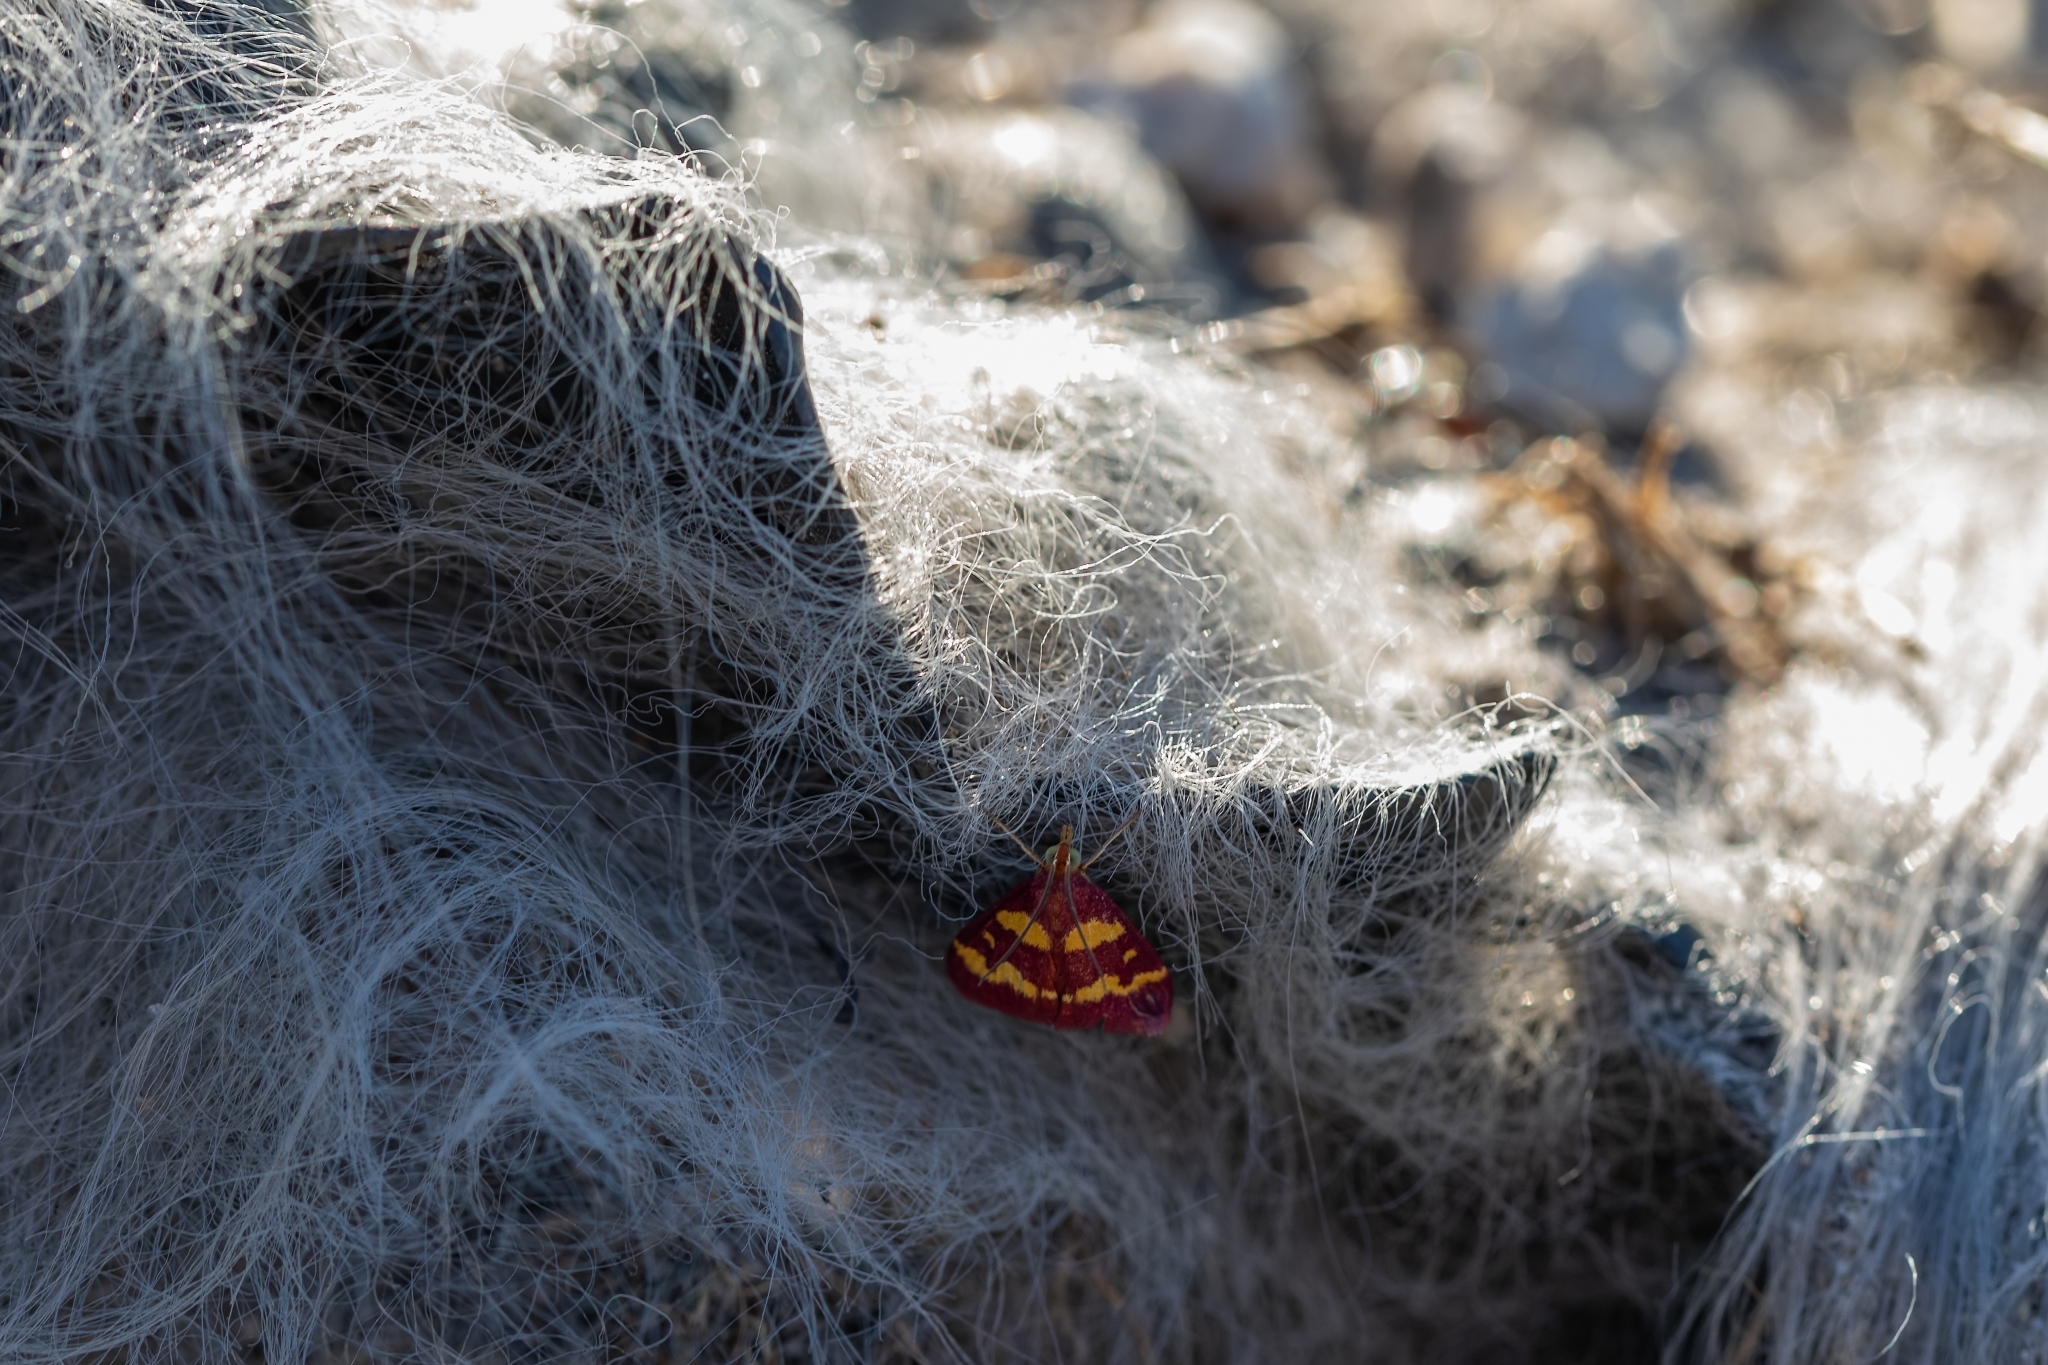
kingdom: Animalia
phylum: Arthropoda
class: Insecta
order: Lepidoptera
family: Crambidae
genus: Pyrausta
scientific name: Pyrausta tyralis
